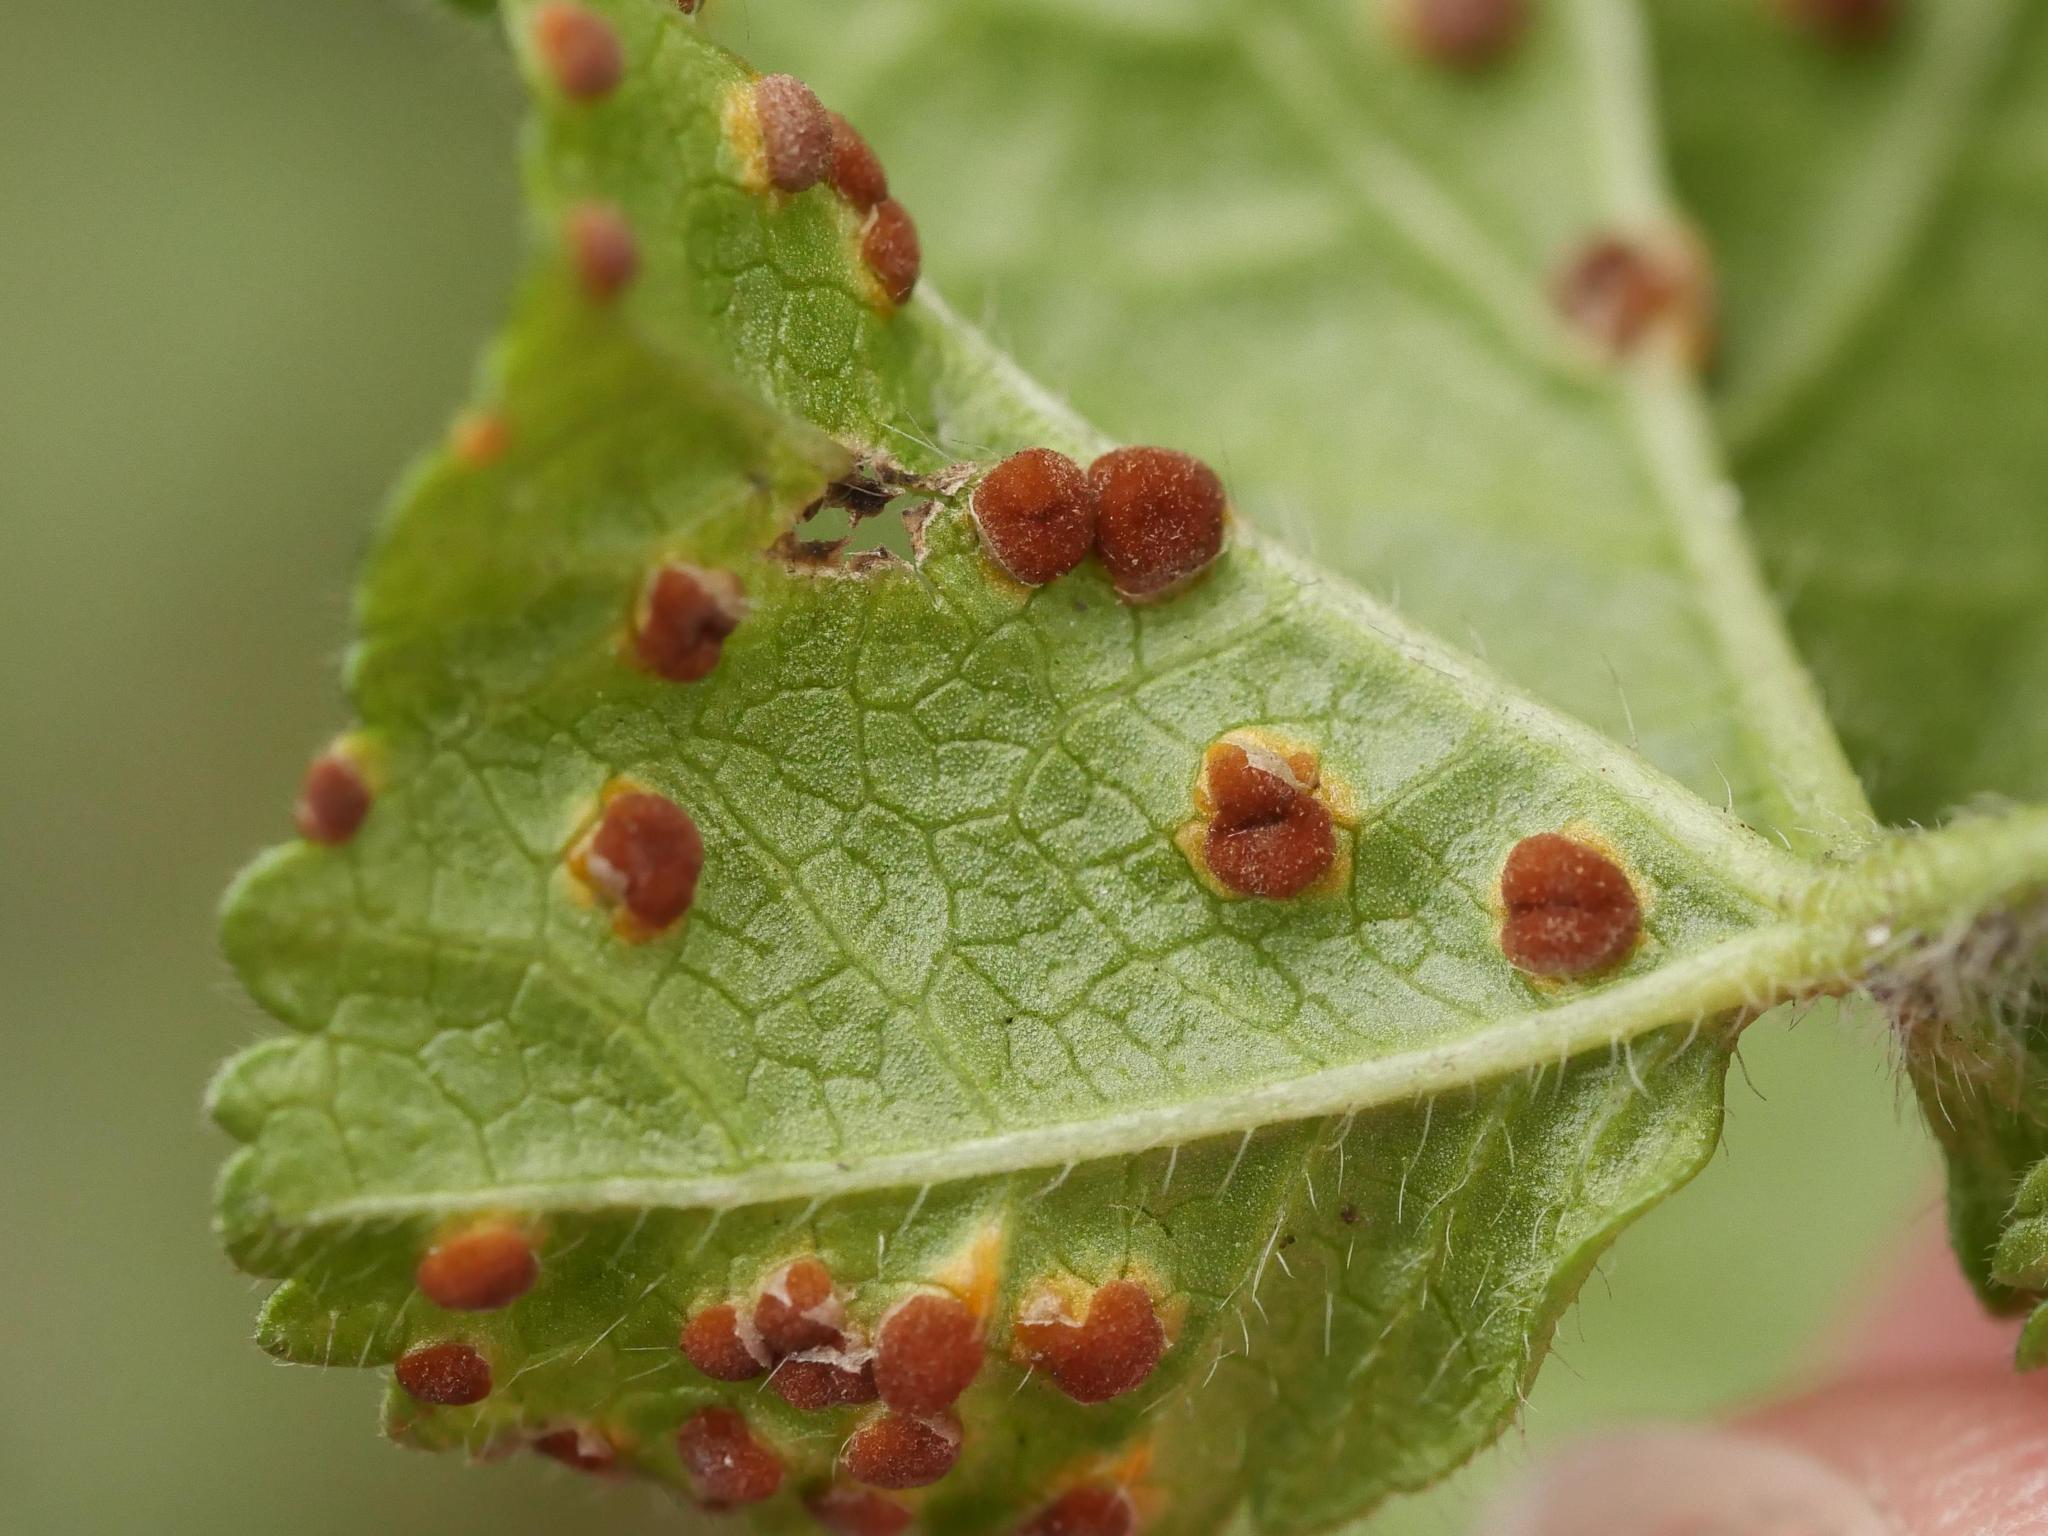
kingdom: Fungi
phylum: Basidiomycota
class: Pucciniomycetes
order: Pucciniales
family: Pucciniaceae
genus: Puccinia
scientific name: Puccinia malvacearum
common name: Hollyhock rust
